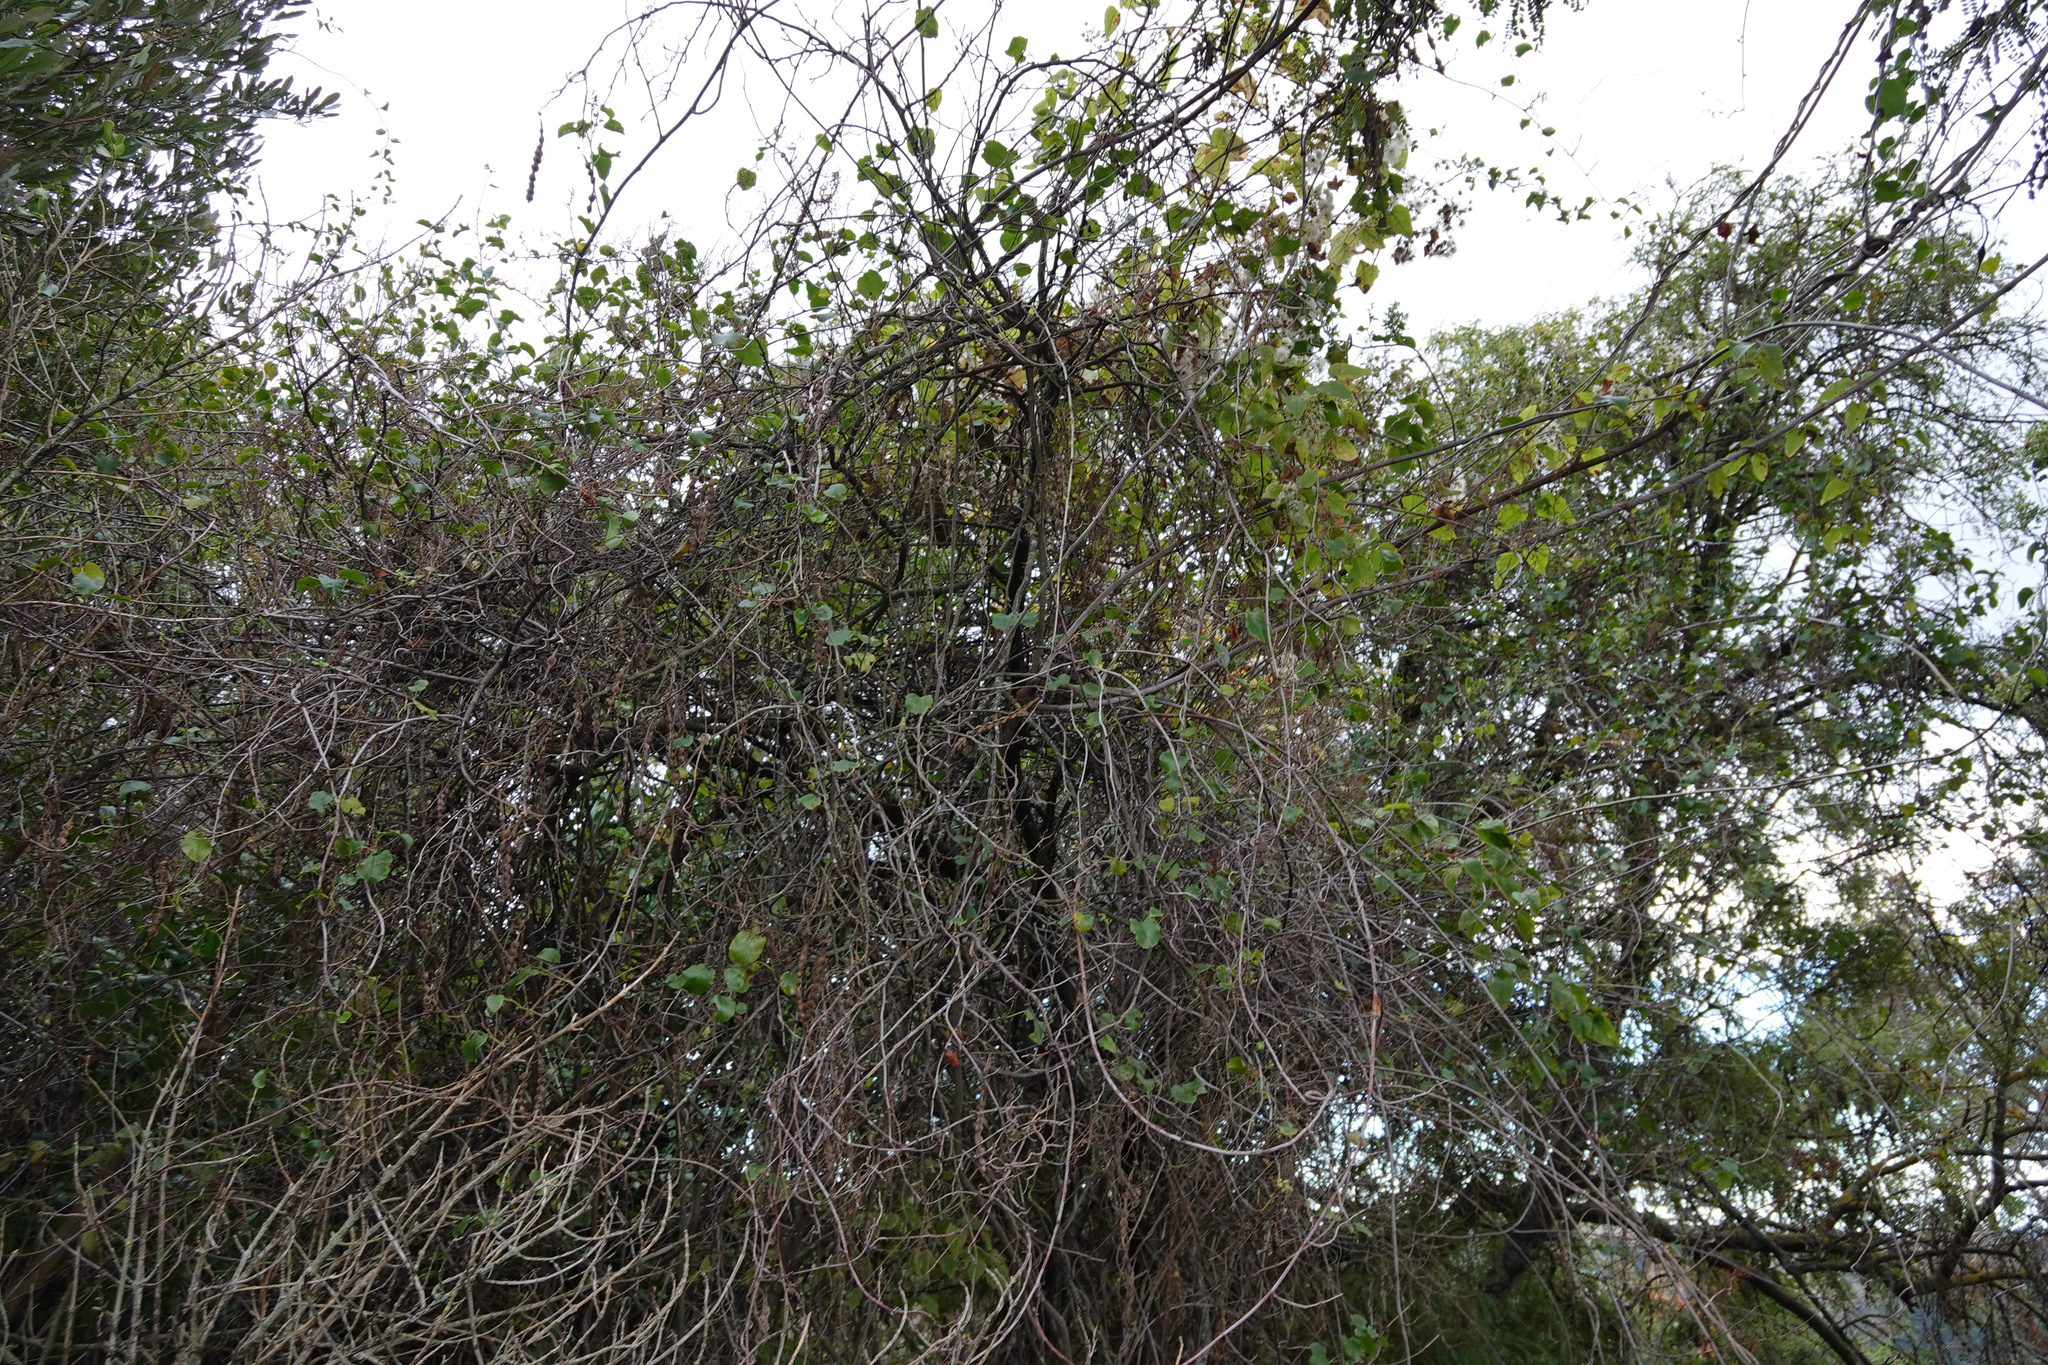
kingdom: Plantae
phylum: Tracheophyta
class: Magnoliopsida
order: Caryophyllales
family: Polygonaceae
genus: Muehlenbeckia
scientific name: Muehlenbeckia australis
